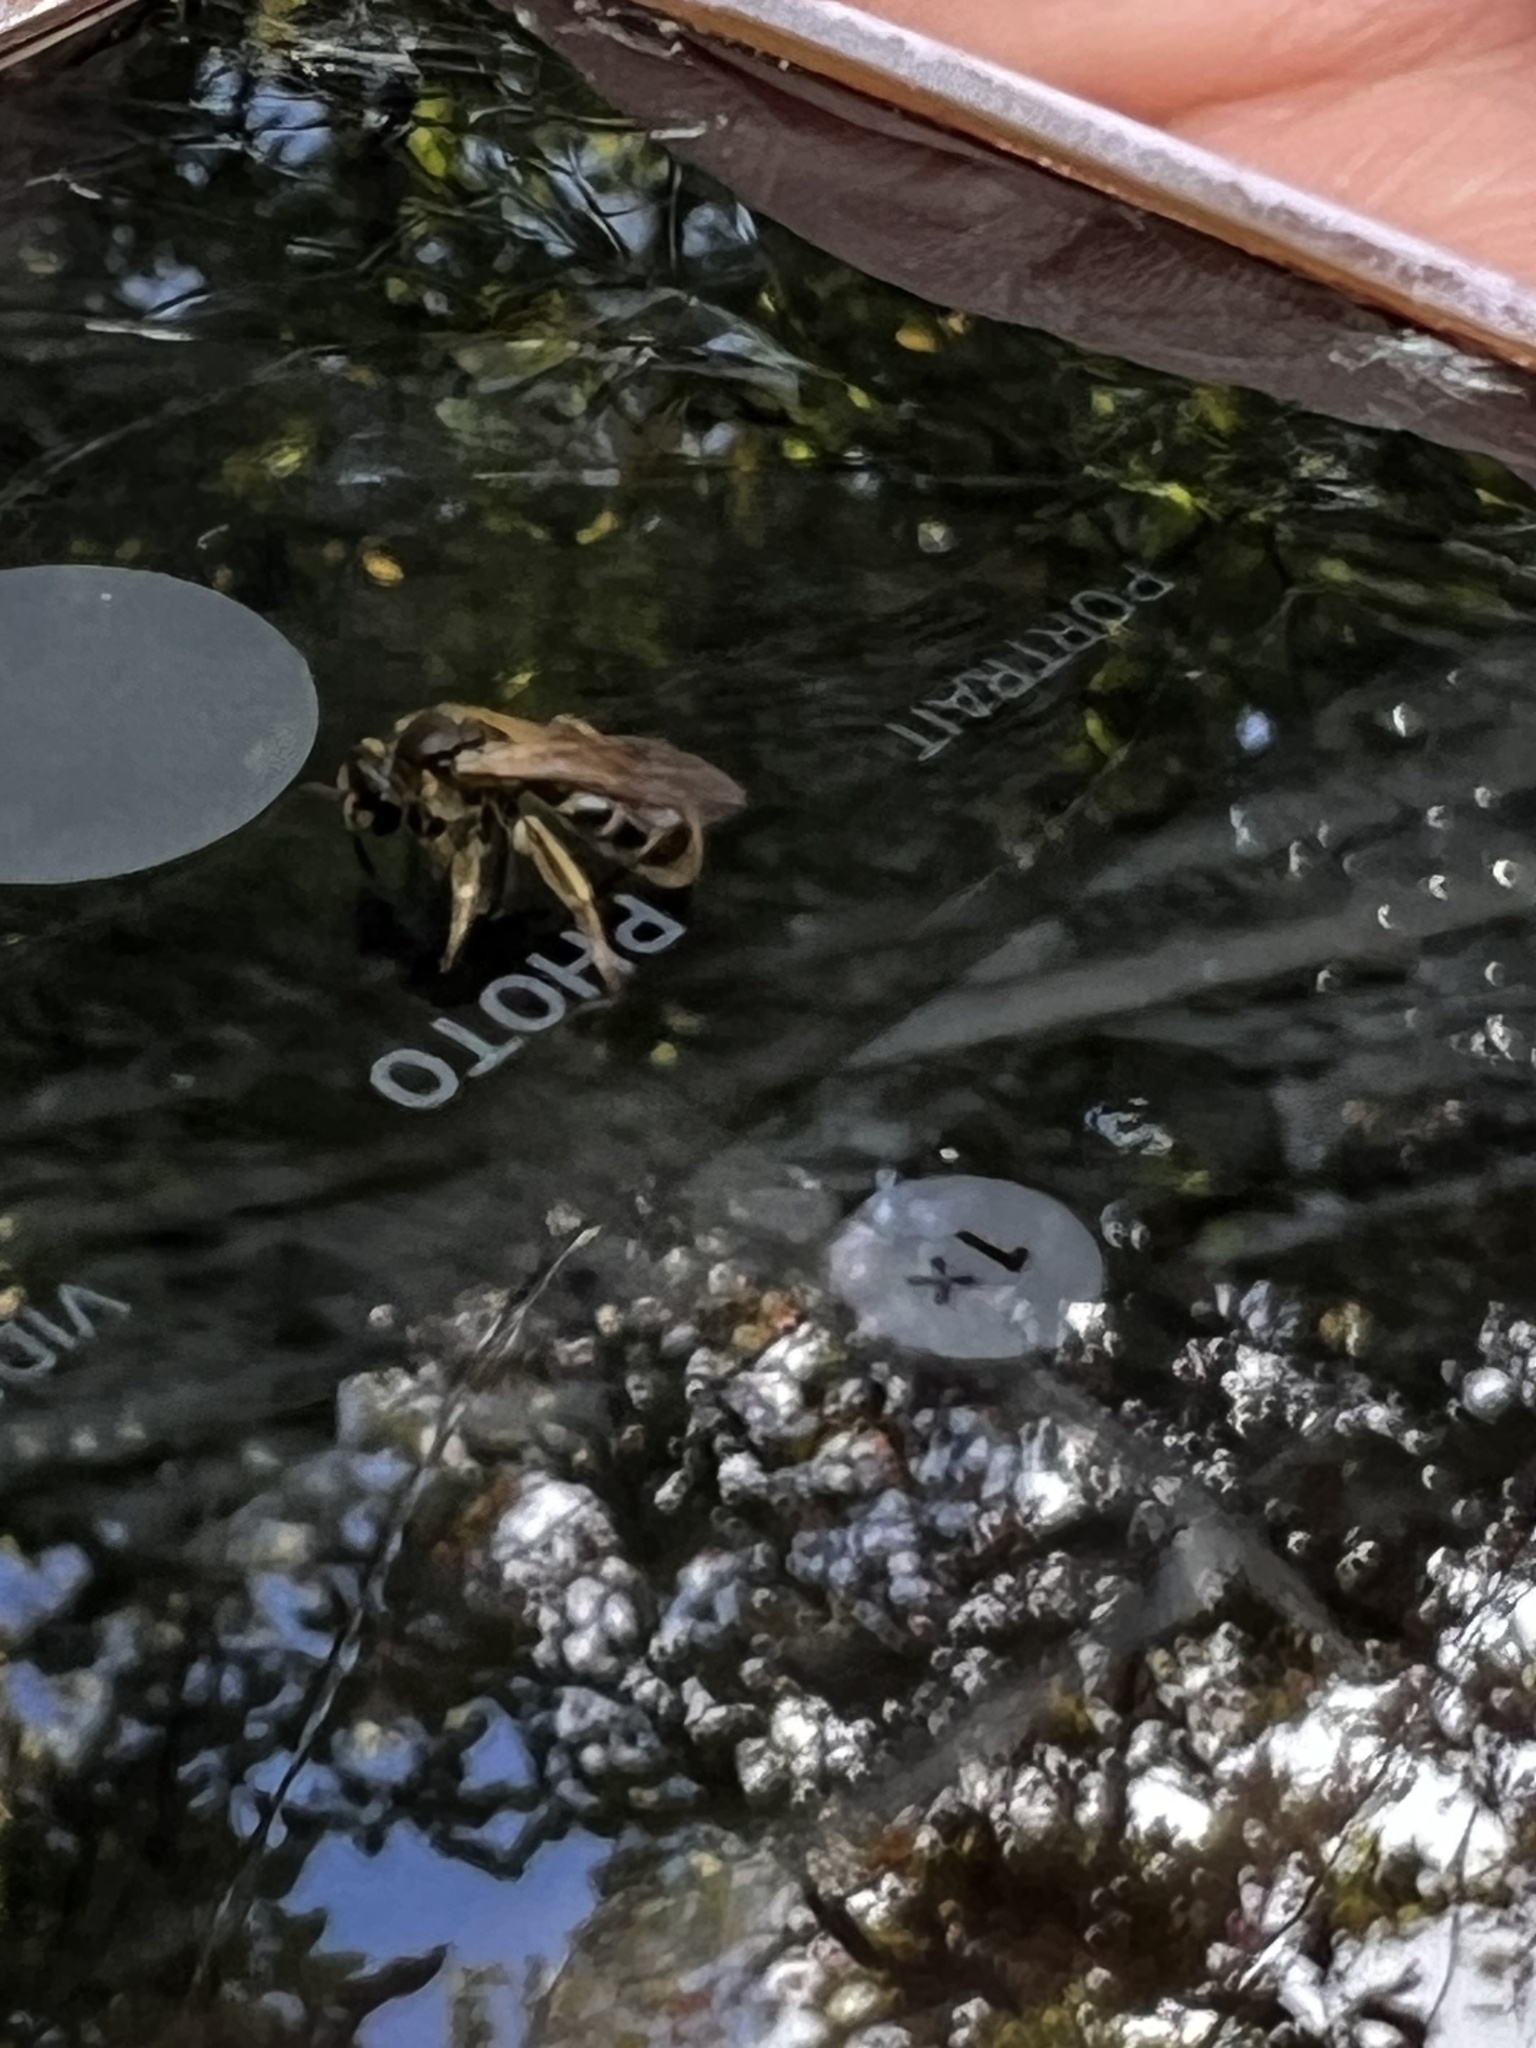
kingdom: Animalia
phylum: Arthropoda
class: Insecta
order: Hymenoptera
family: Halictidae
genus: Lasioglossum
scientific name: Lasioglossum
